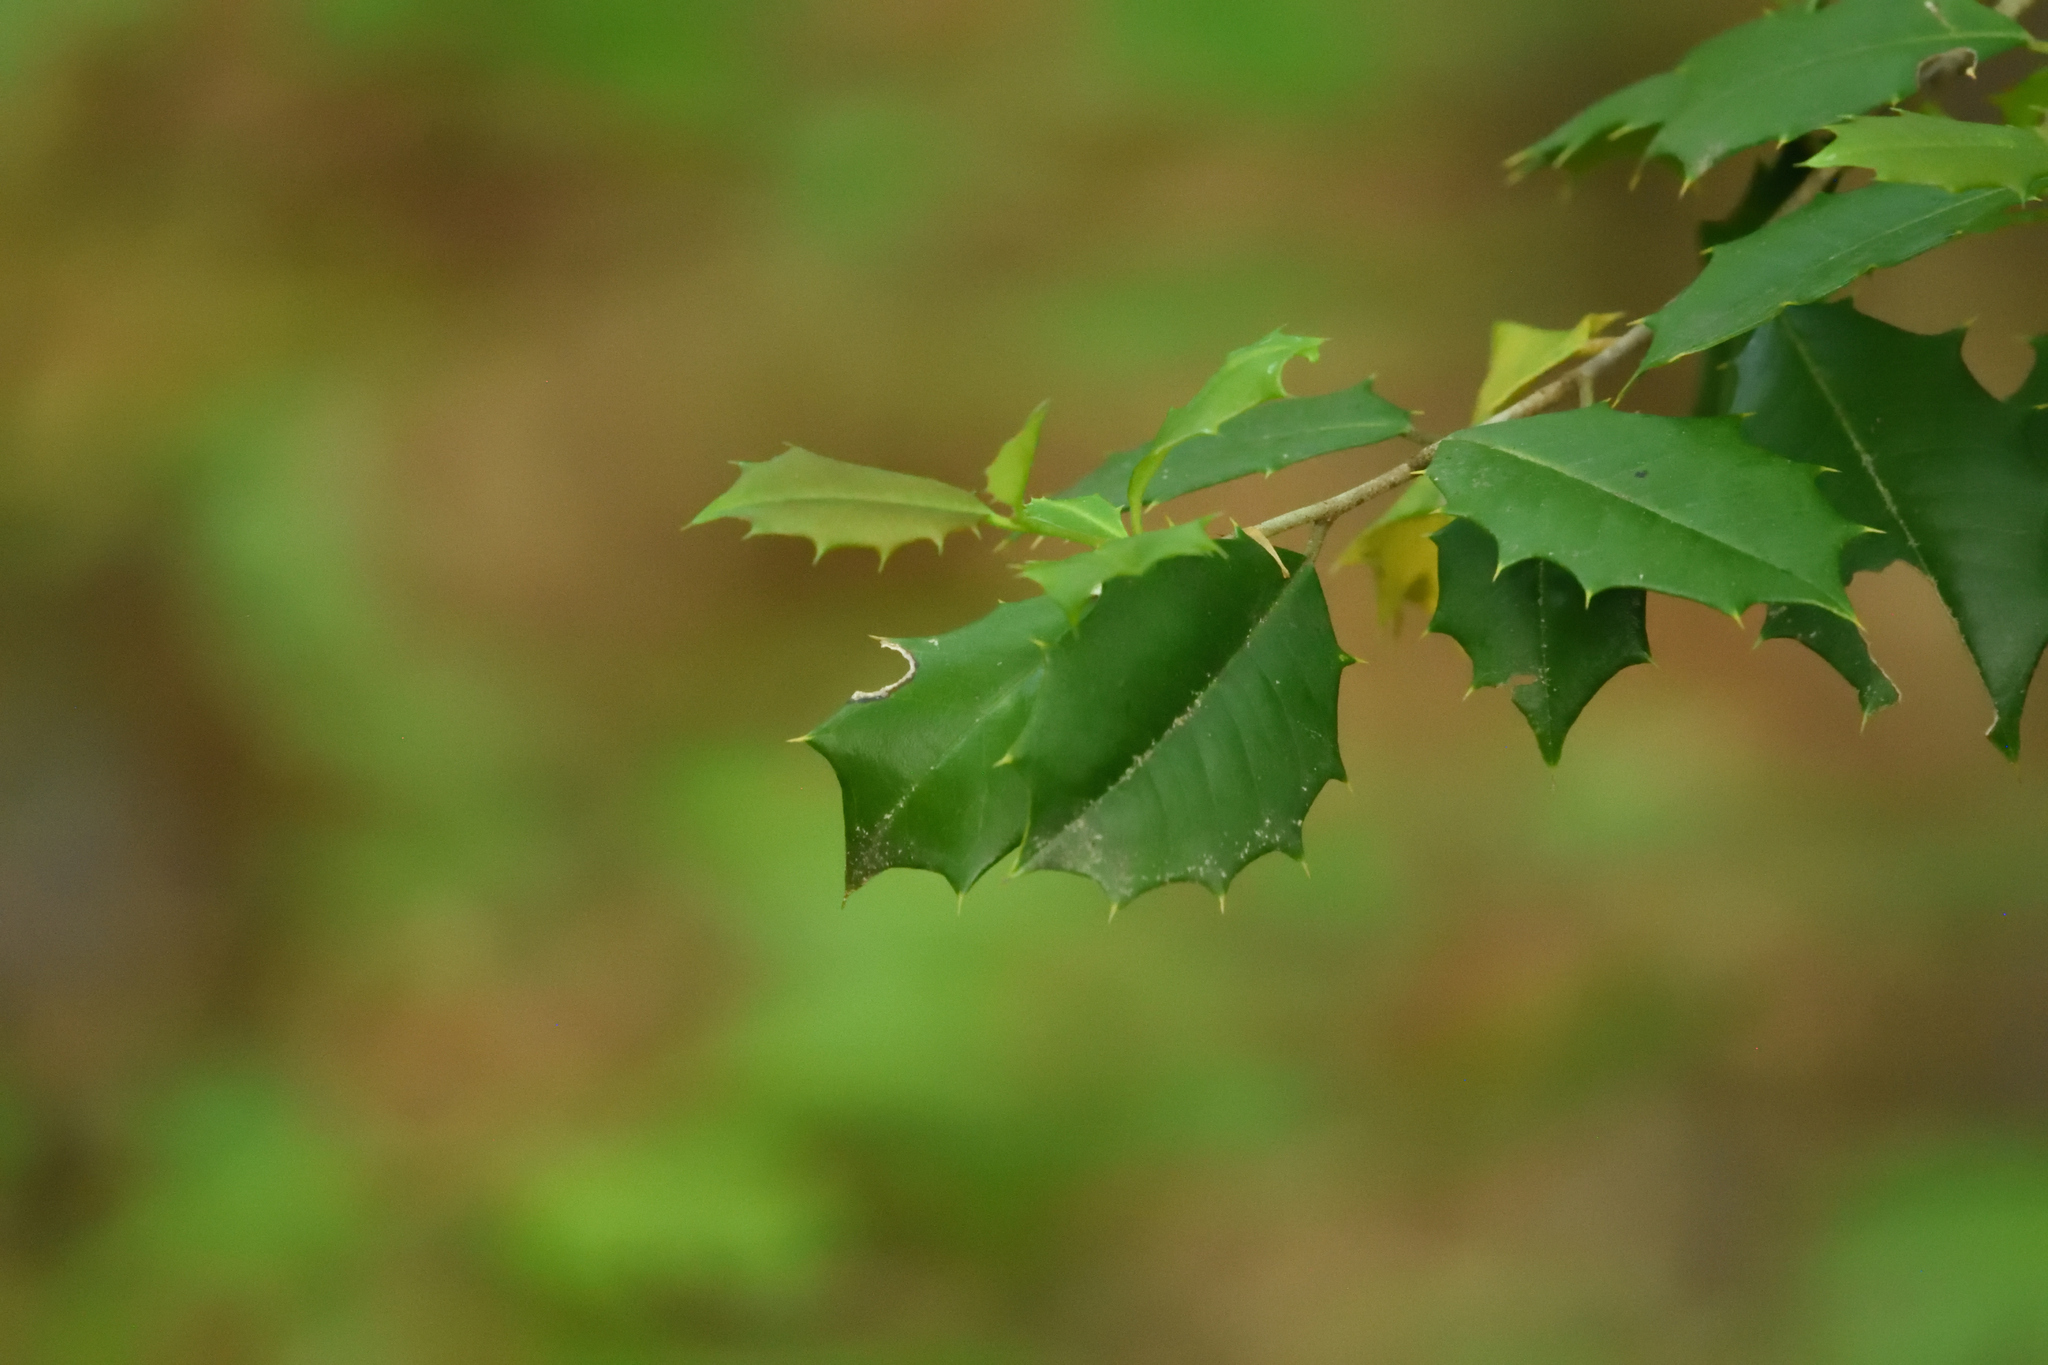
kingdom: Plantae
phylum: Tracheophyta
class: Magnoliopsida
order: Aquifoliales
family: Aquifoliaceae
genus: Ilex
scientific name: Ilex opaca
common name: American holly
